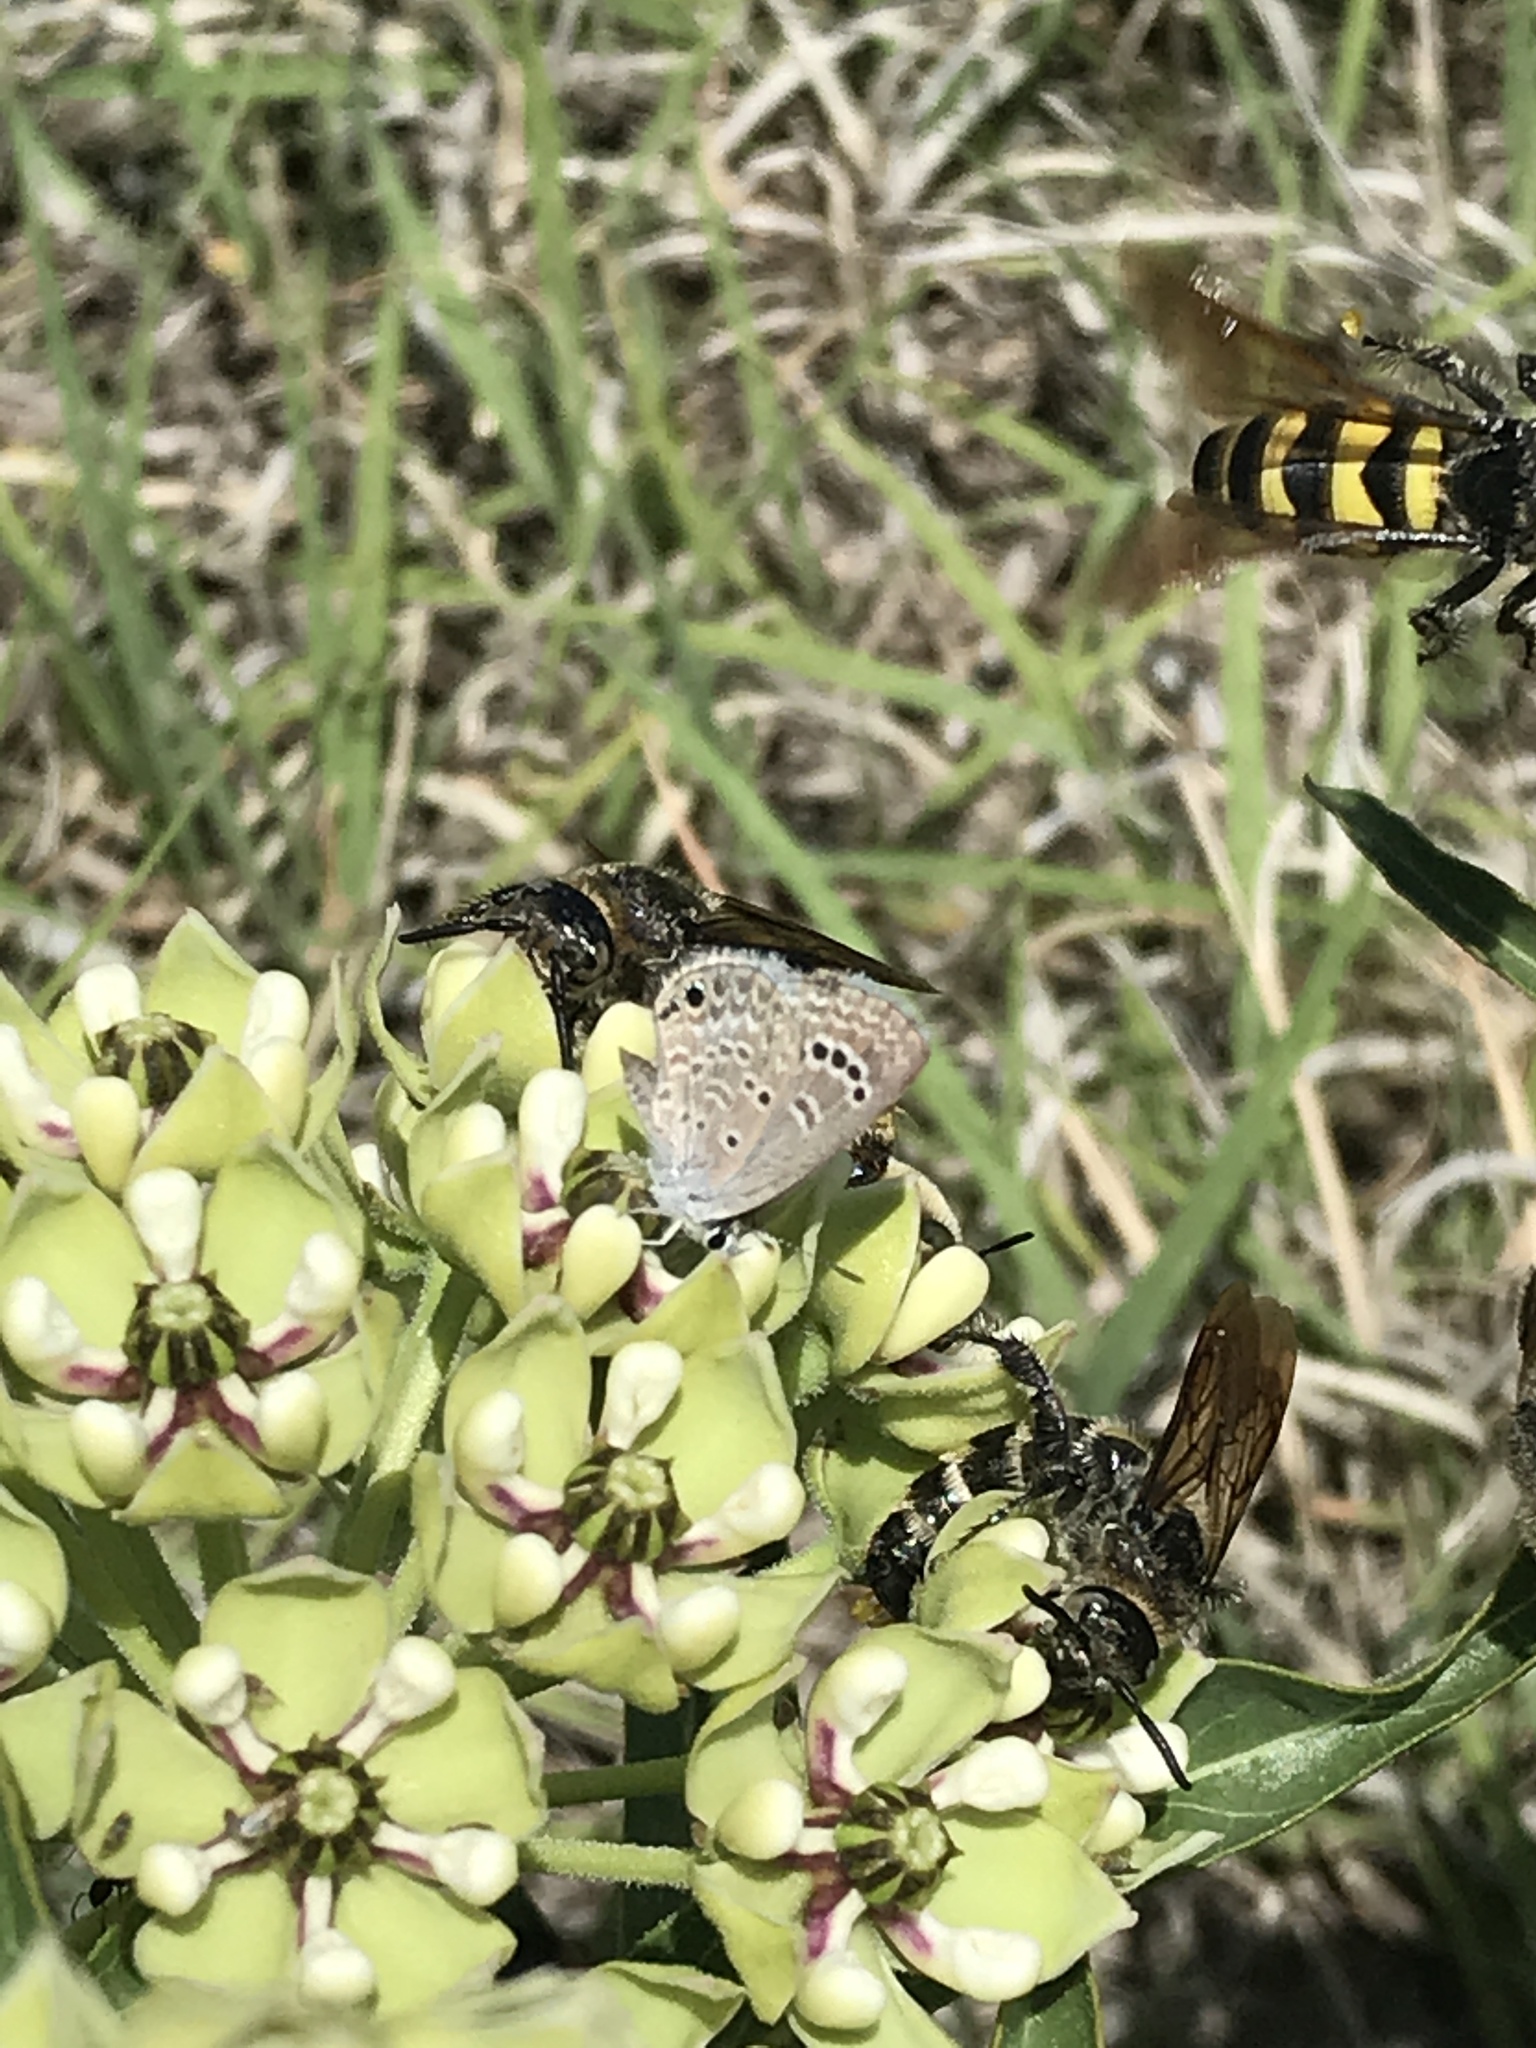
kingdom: Animalia
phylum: Arthropoda
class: Insecta
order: Lepidoptera
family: Lycaenidae
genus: Echinargus
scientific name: Echinargus isola
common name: Reakirt's blue
